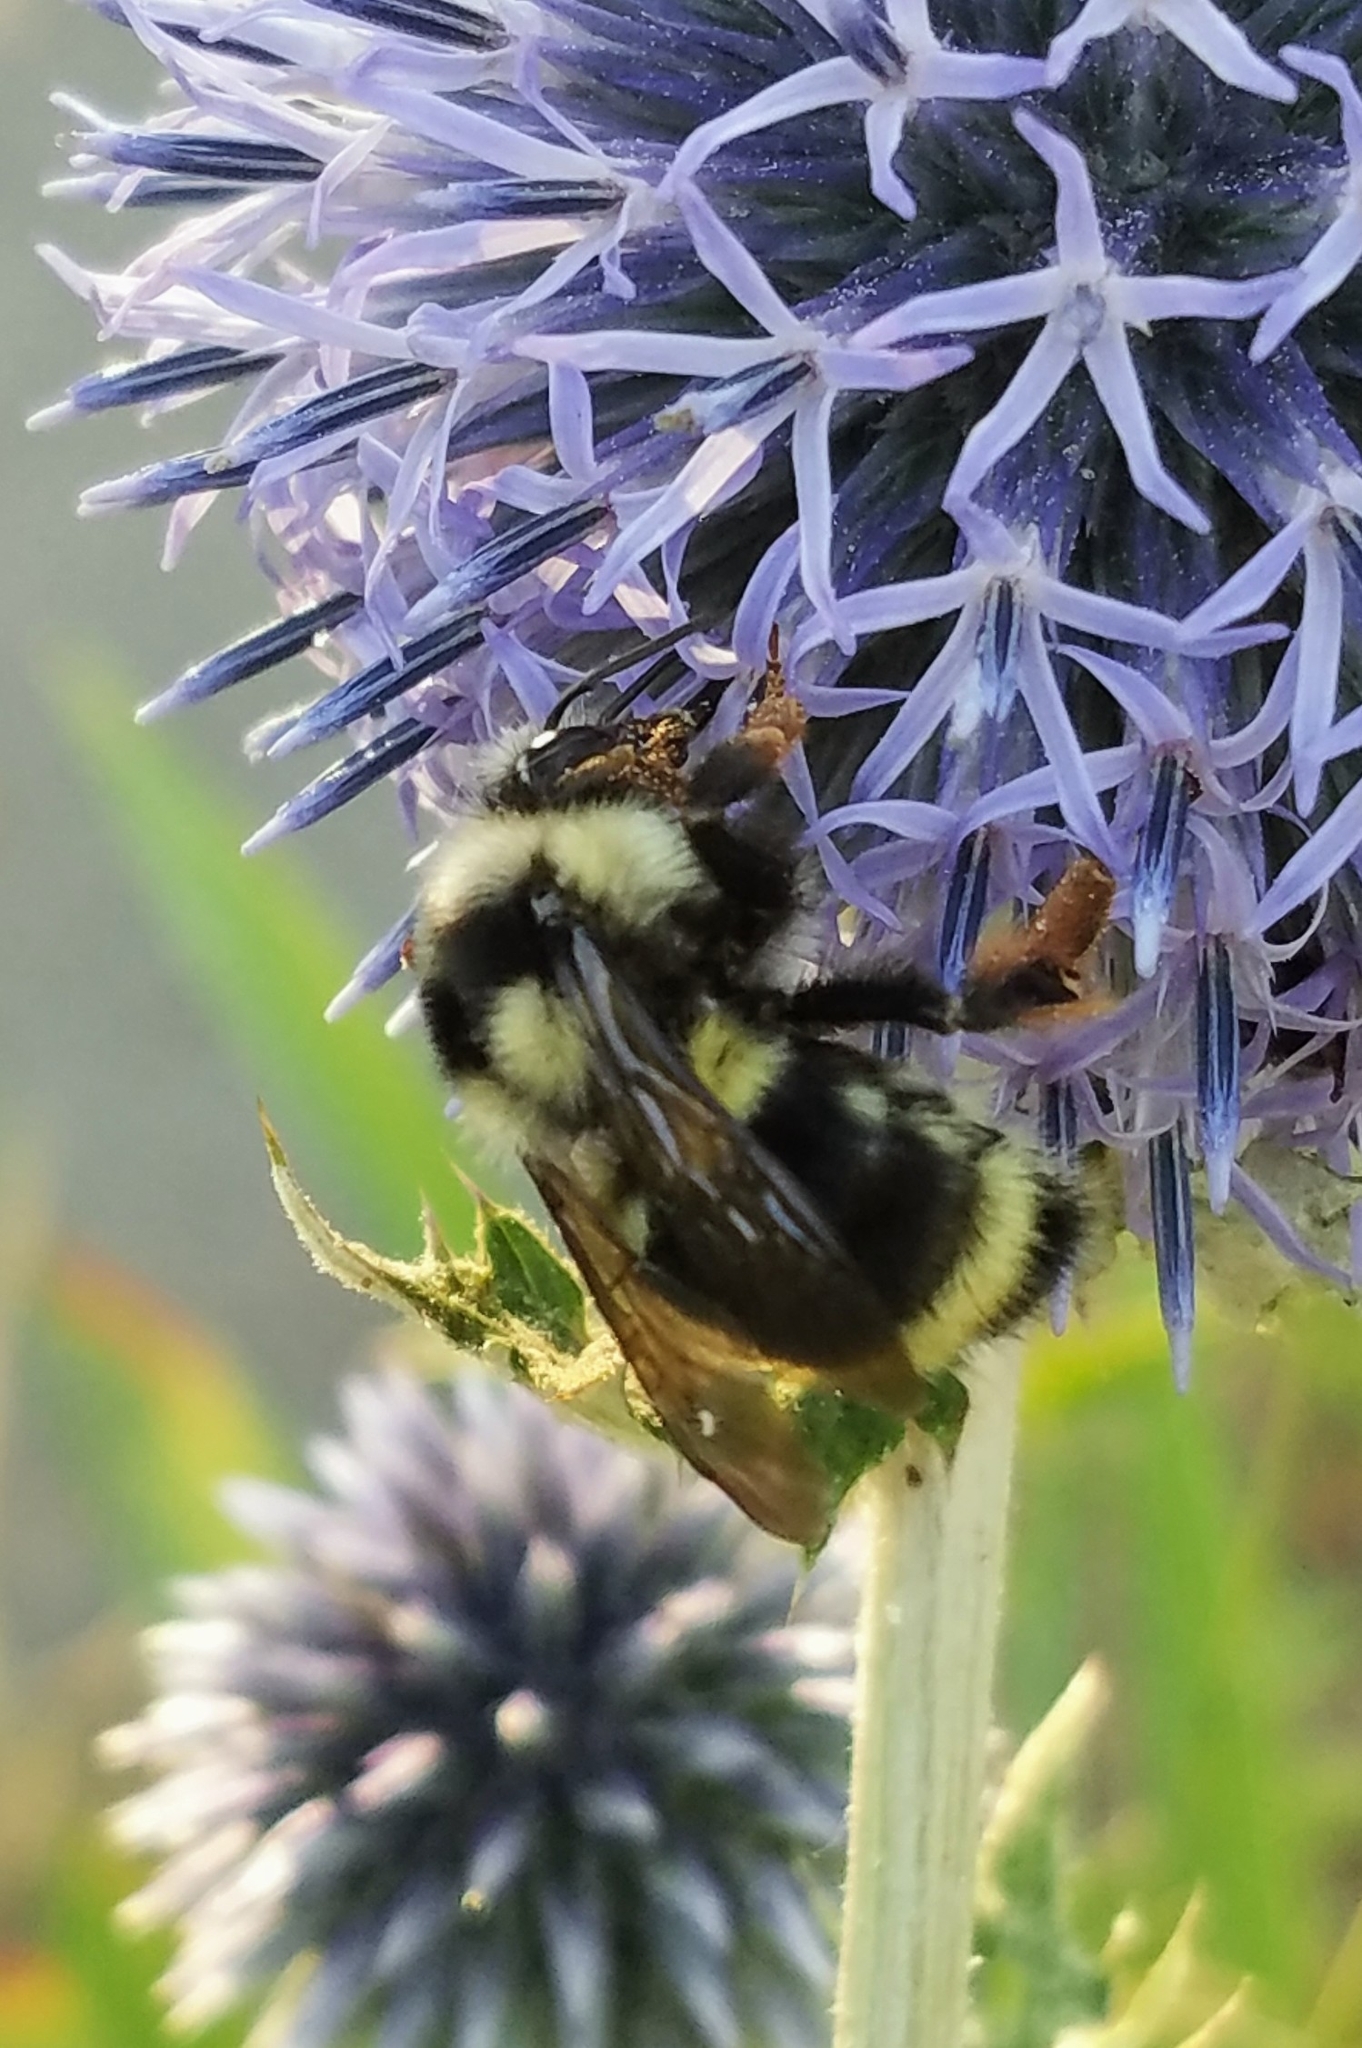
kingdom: Animalia
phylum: Arthropoda
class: Insecta
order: Hymenoptera
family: Apidae
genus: Bombus
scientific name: Bombus vancouverensis
